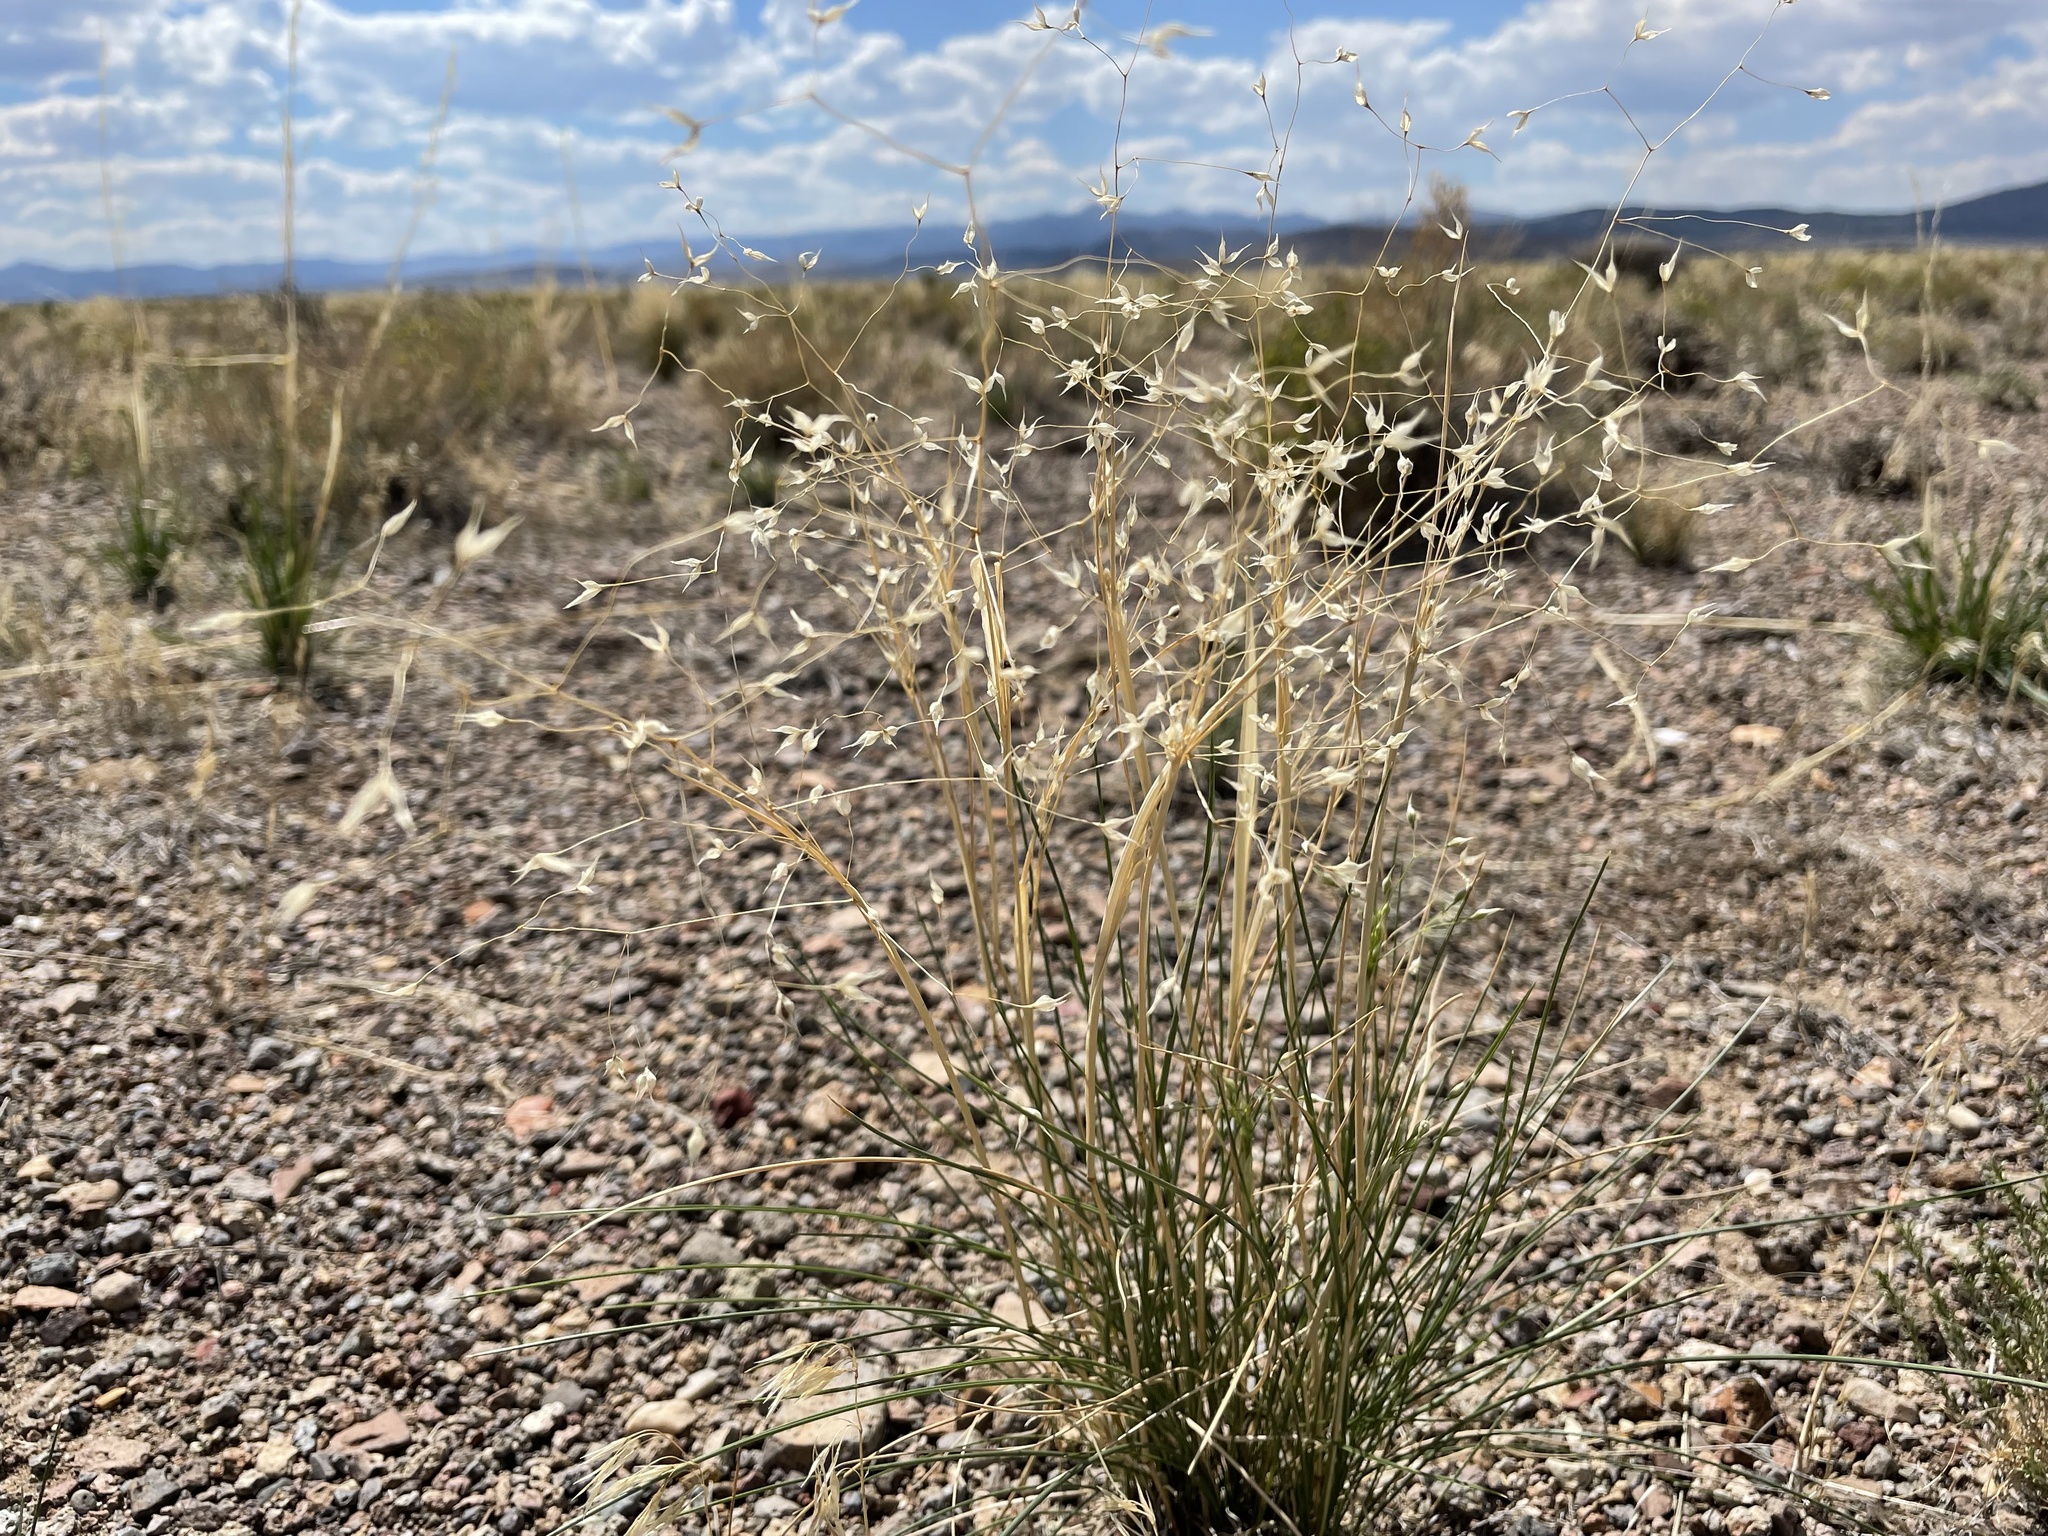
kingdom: Plantae
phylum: Tracheophyta
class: Liliopsida
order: Poales
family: Poaceae
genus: Eriocoma
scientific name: Eriocoma hymenoides
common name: Indian mountain ricegrass
